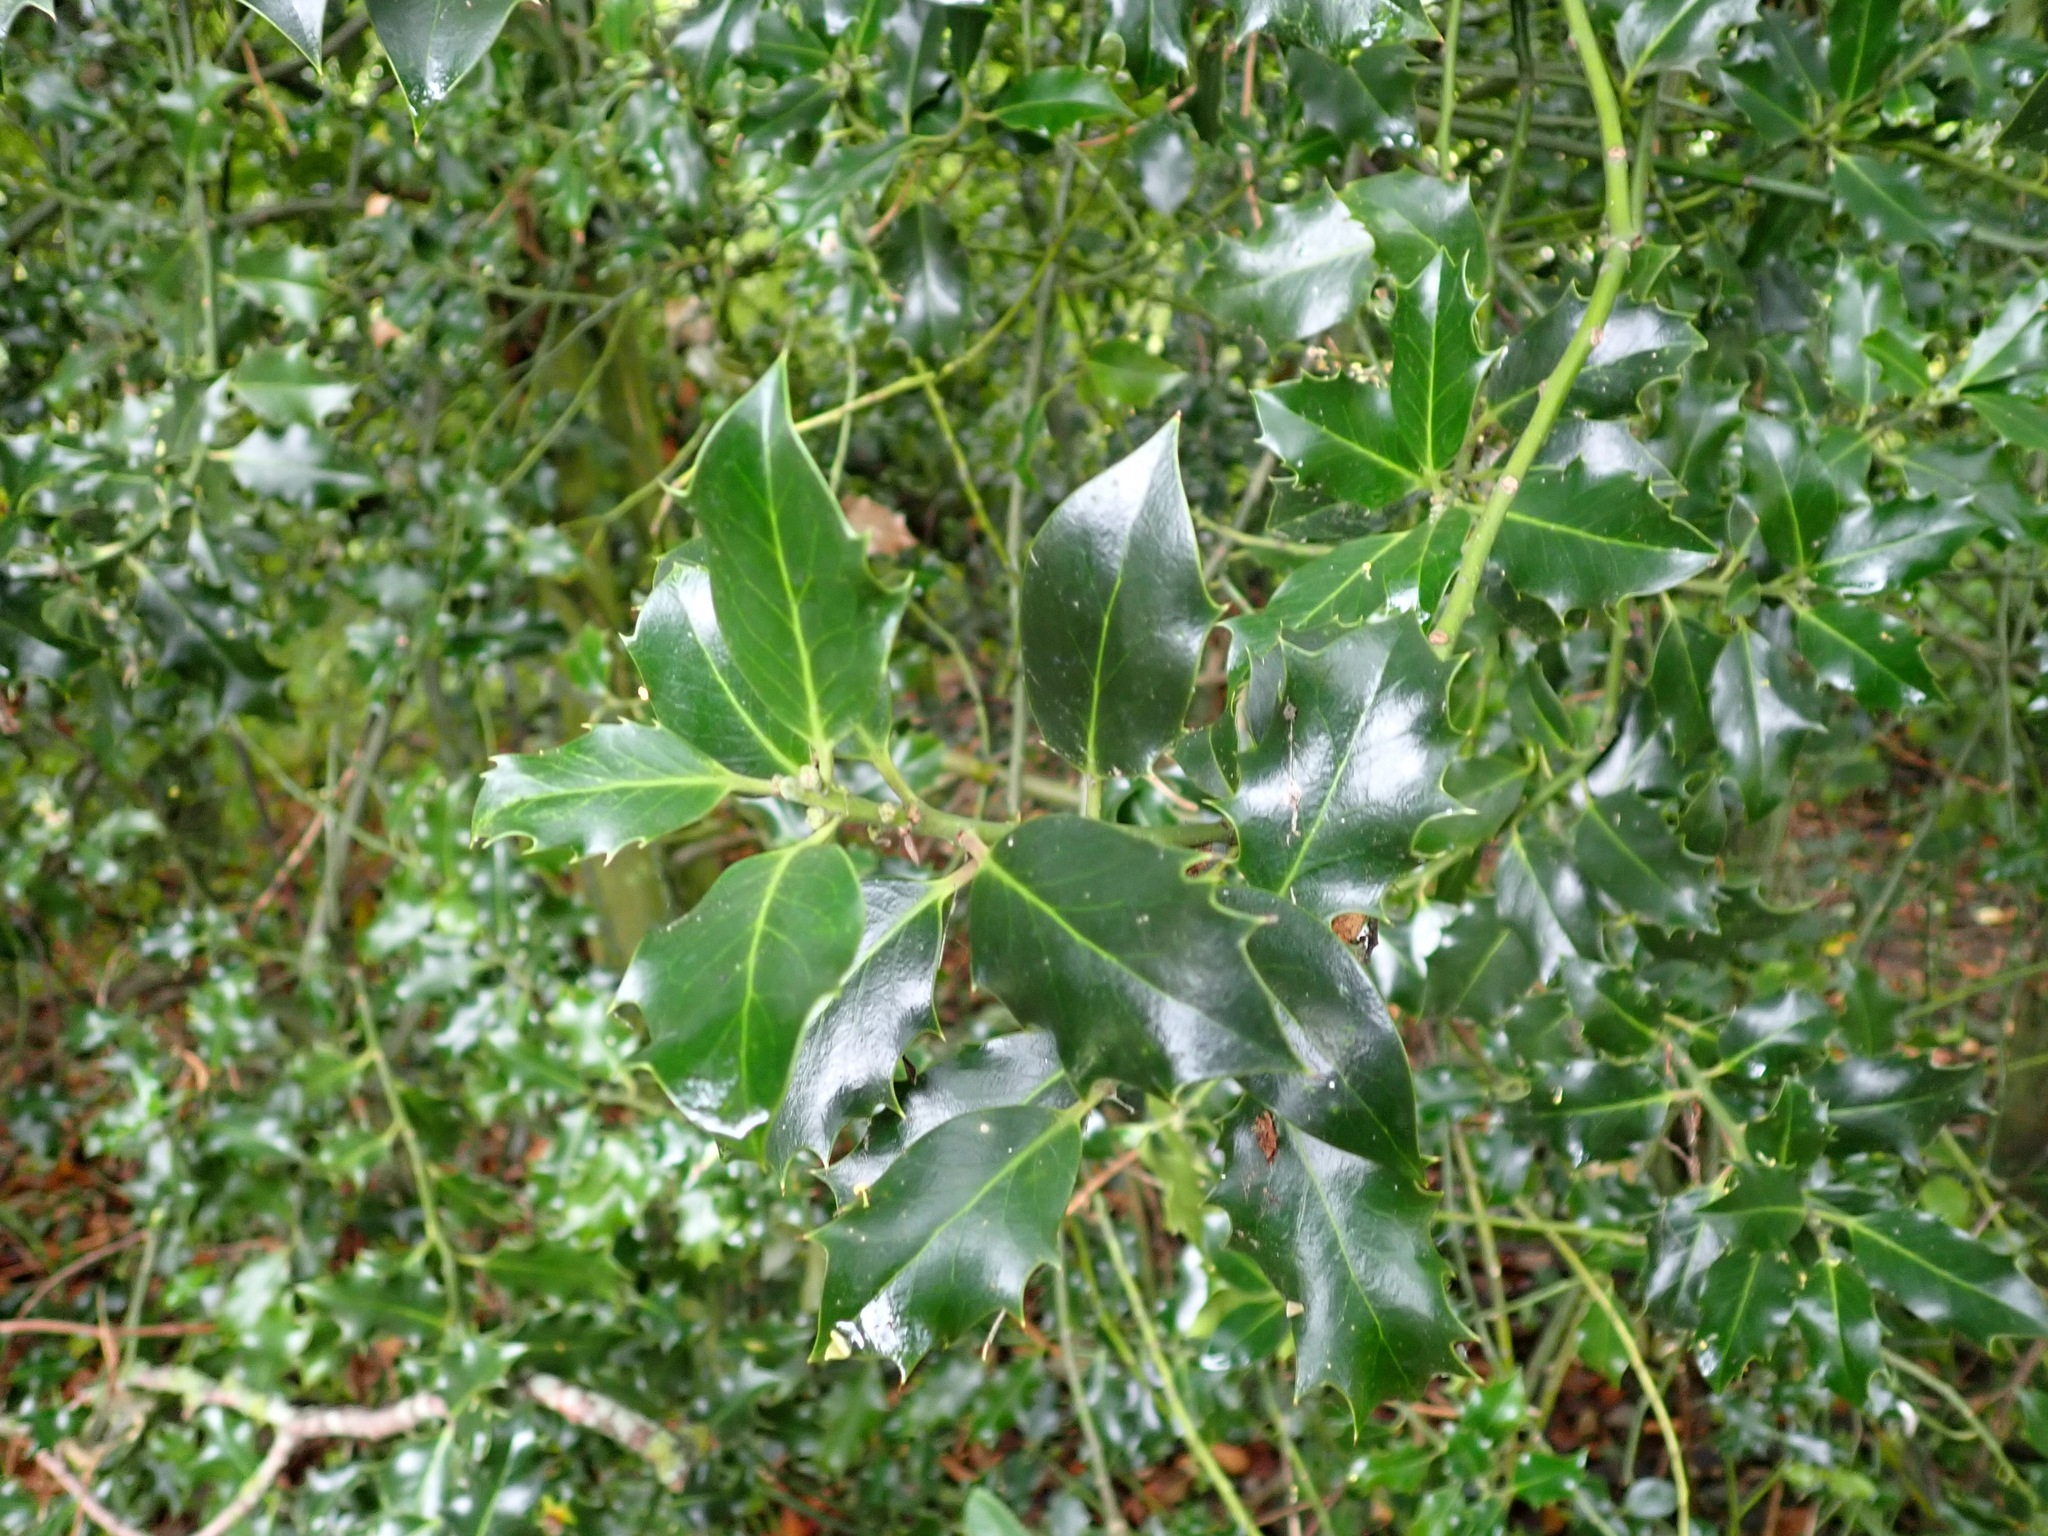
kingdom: Plantae
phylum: Tracheophyta
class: Magnoliopsida
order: Aquifoliales
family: Aquifoliaceae
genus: Ilex
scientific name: Ilex aquifolium
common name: English holly
